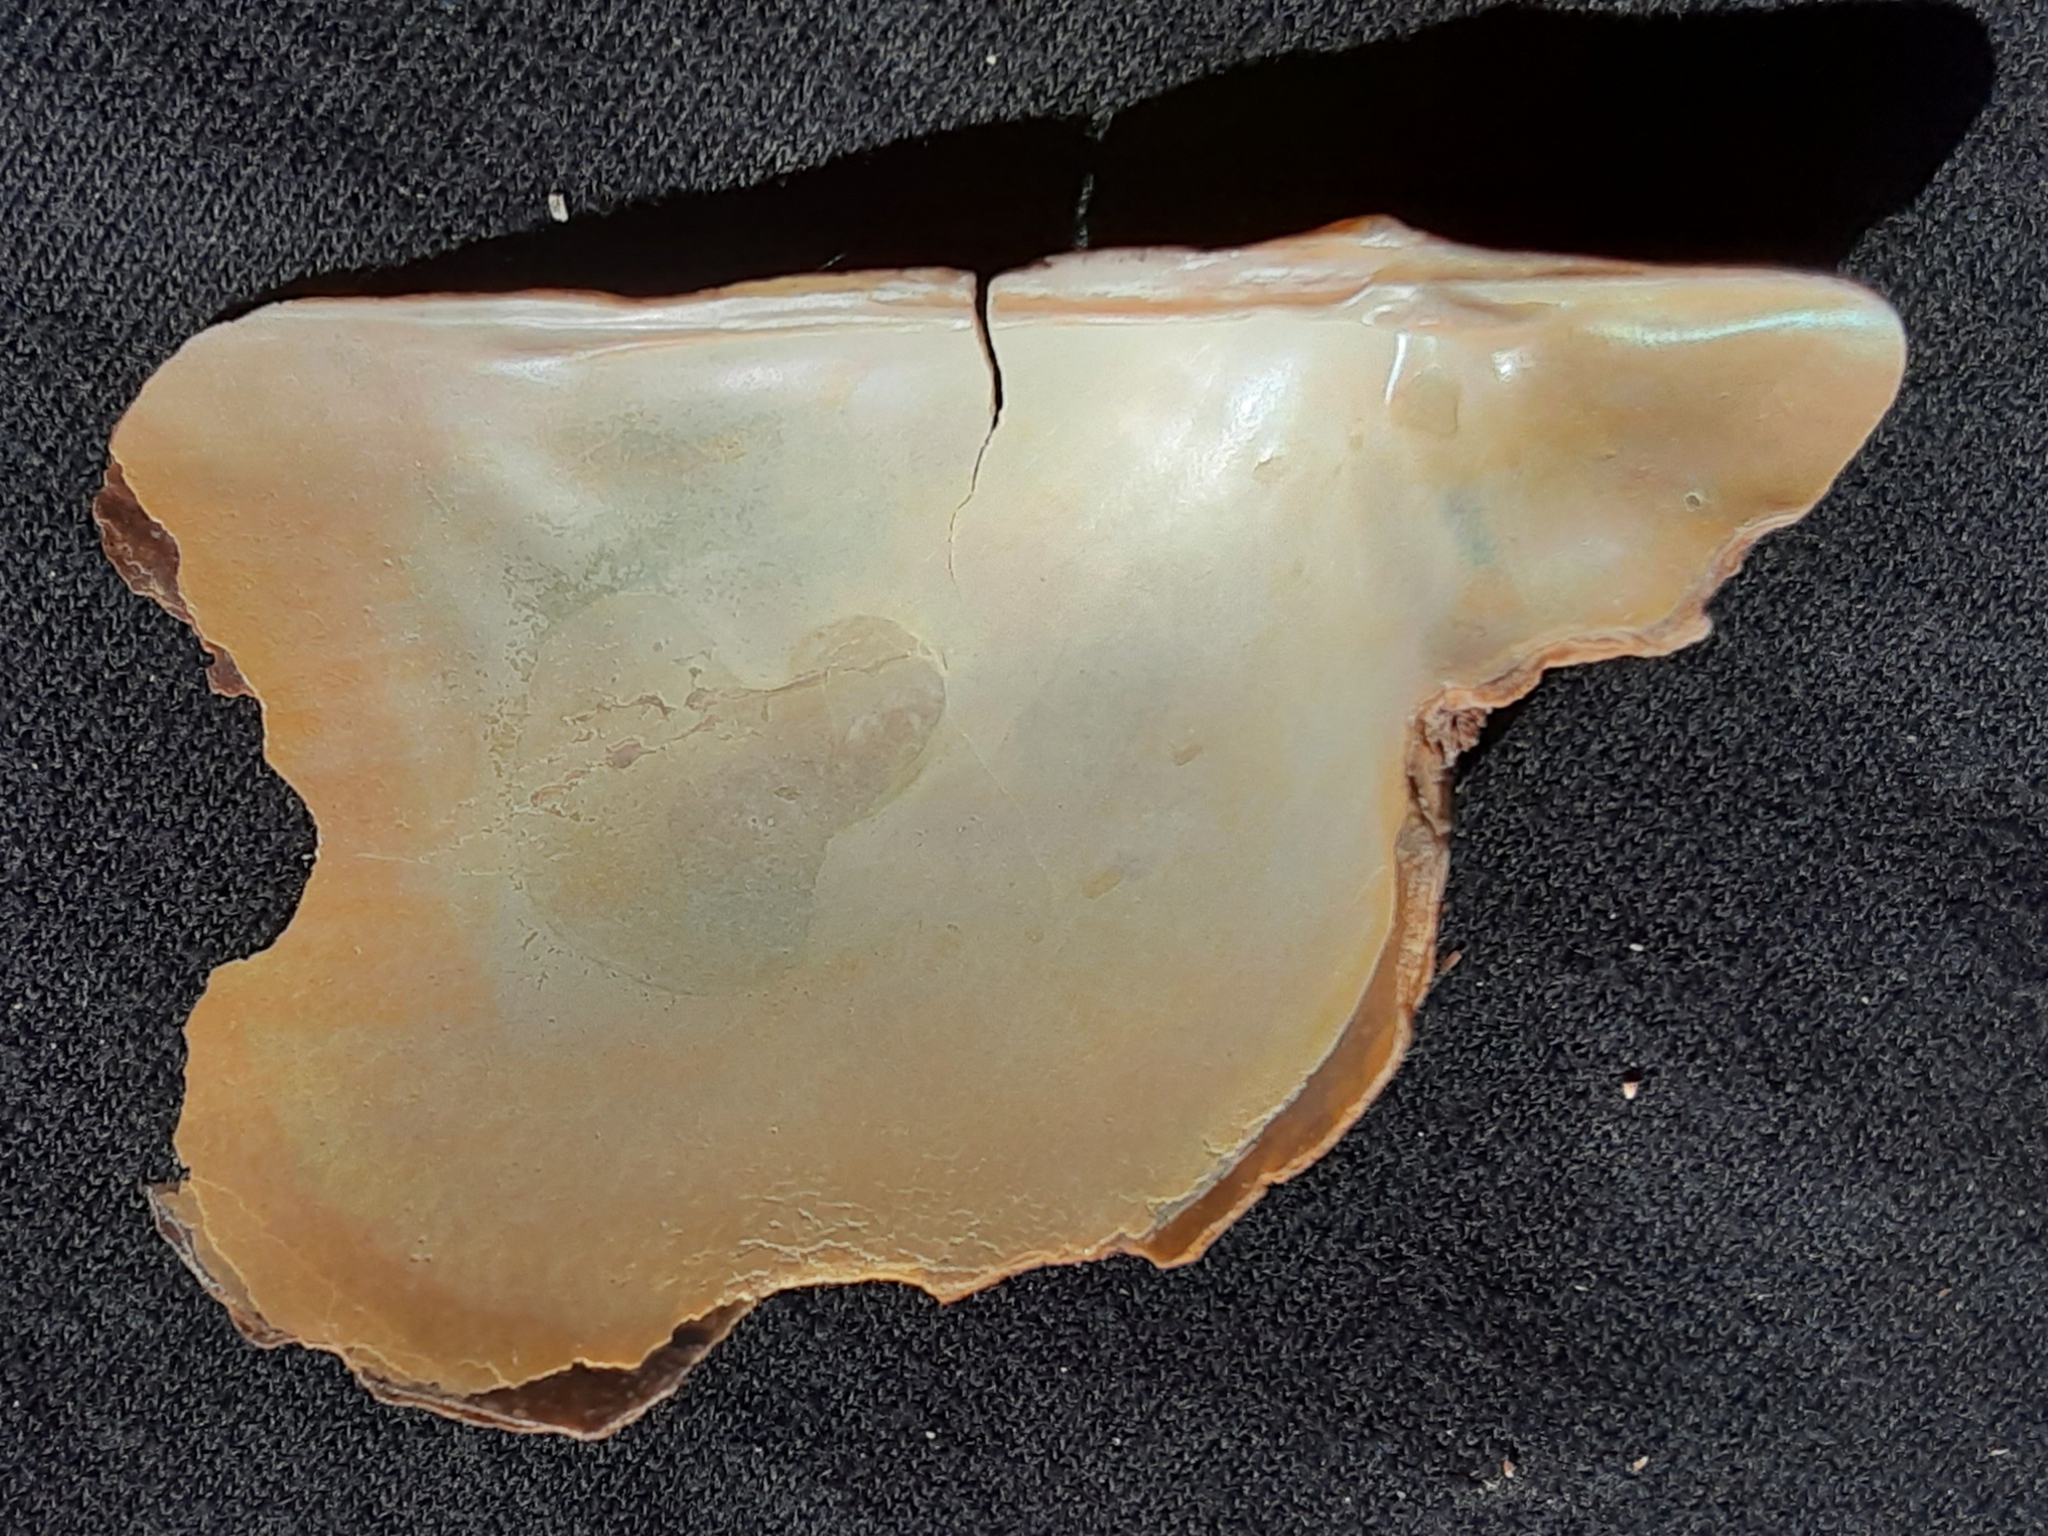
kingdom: Animalia
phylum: Mollusca
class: Bivalvia
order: Ostreida
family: Pteriidae
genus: Pteria
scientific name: Pteria colymbus
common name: Atlantic wing-oyster
